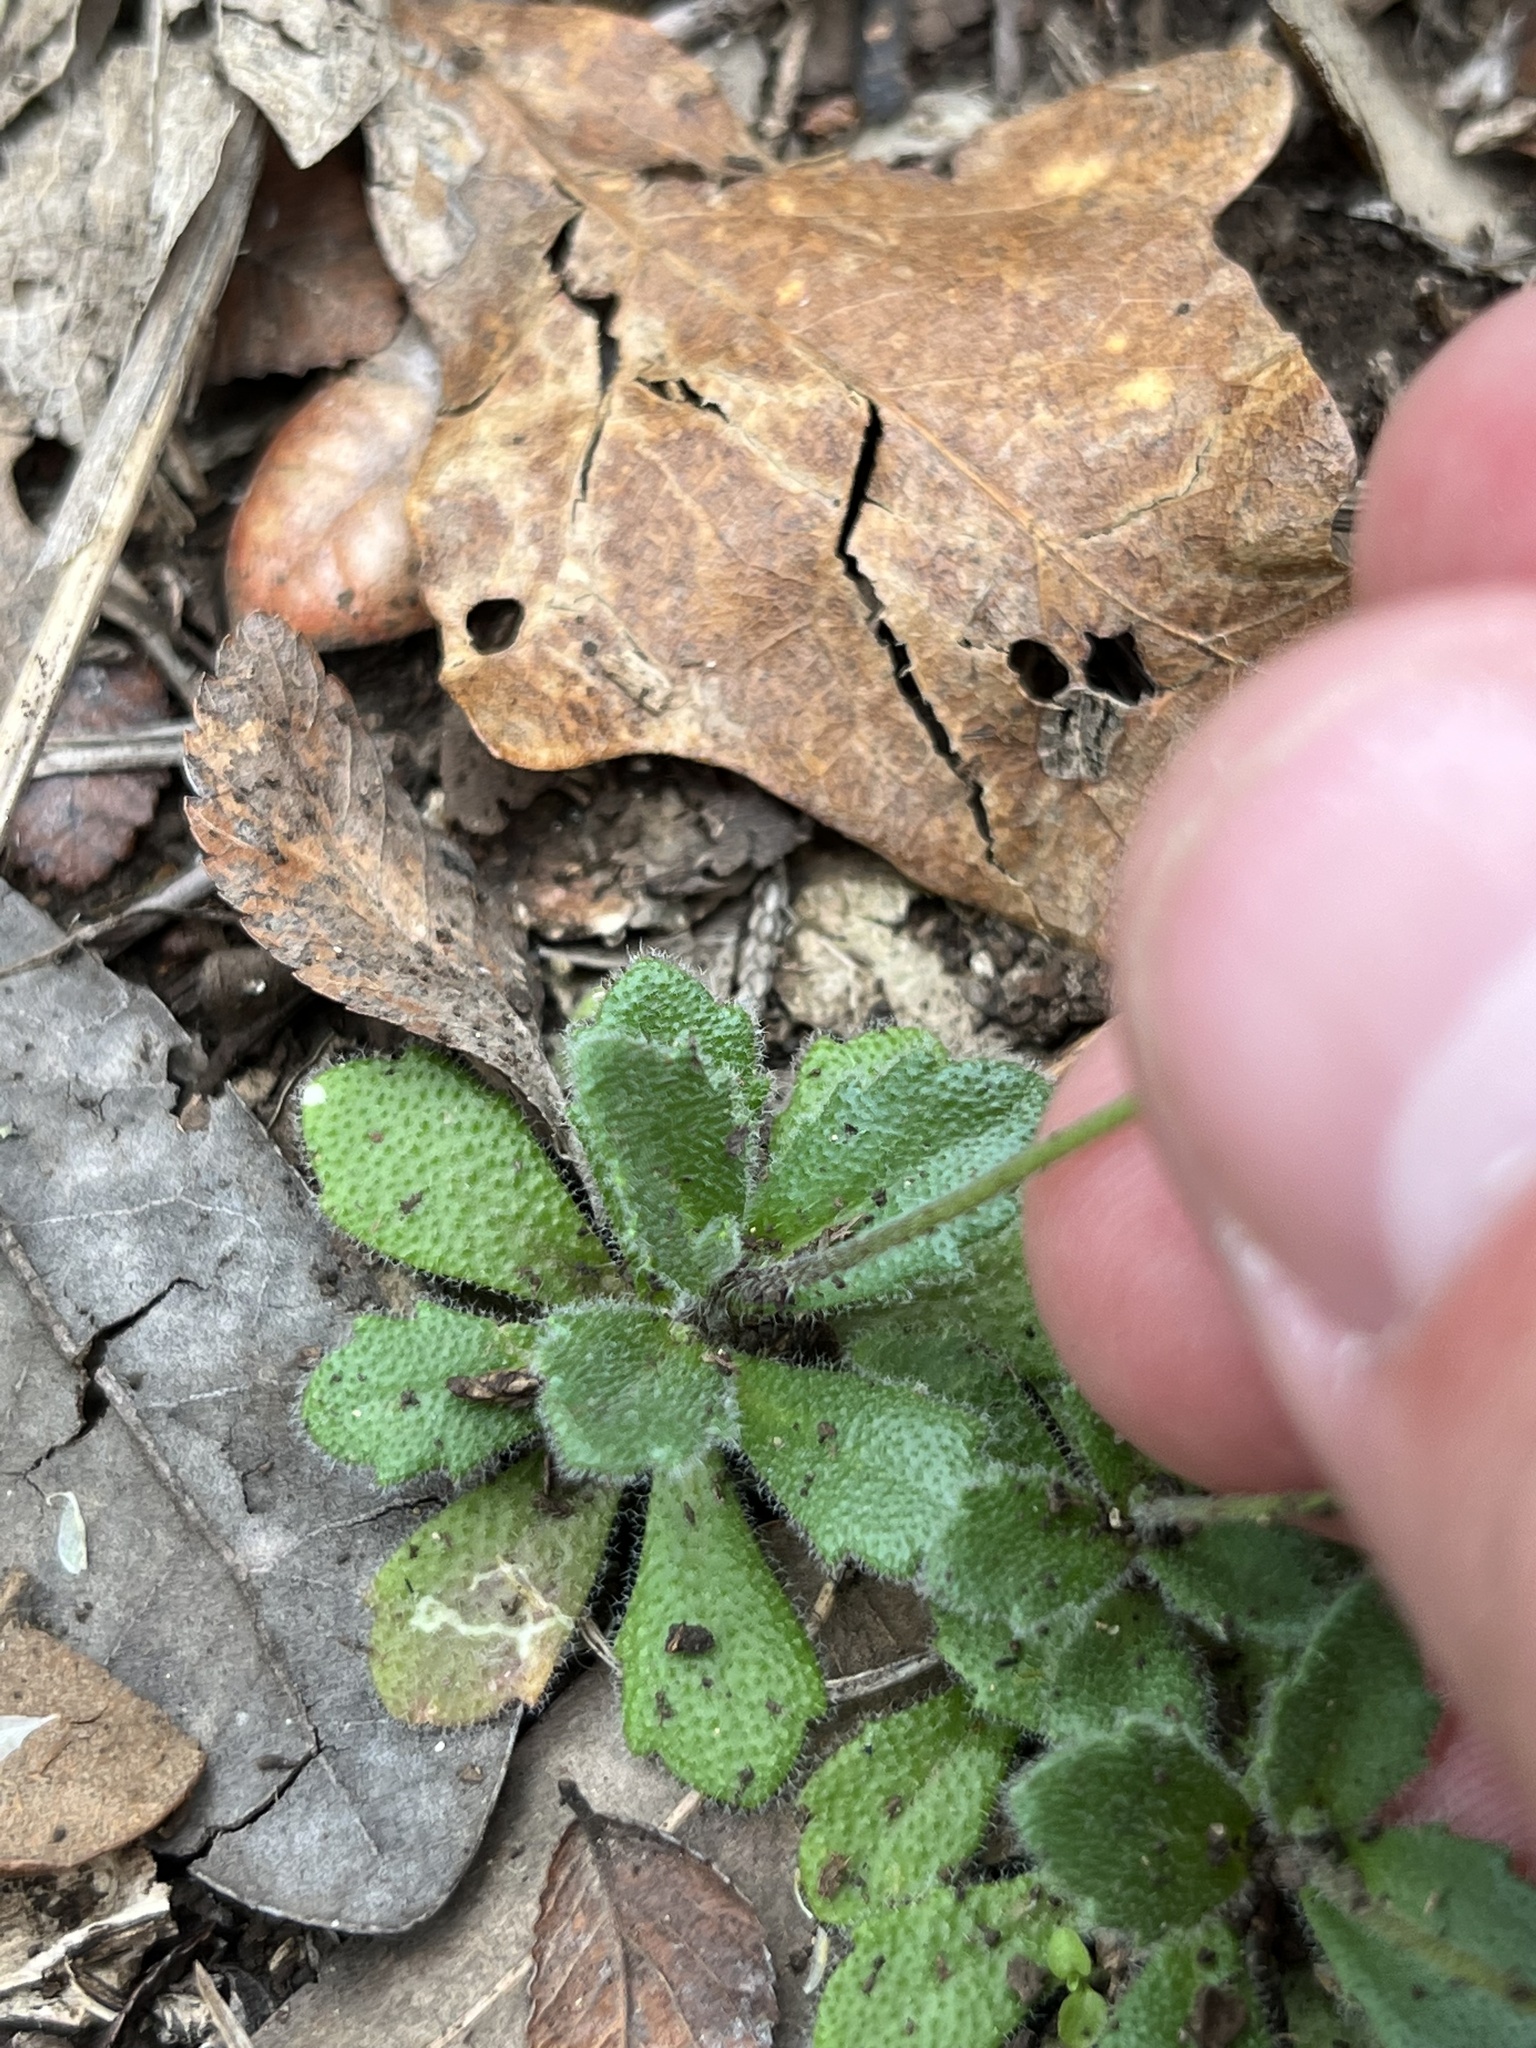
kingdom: Plantae
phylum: Tracheophyta
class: Magnoliopsida
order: Brassicales
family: Brassicaceae
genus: Tomostima
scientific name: Tomostima cuneifolia
